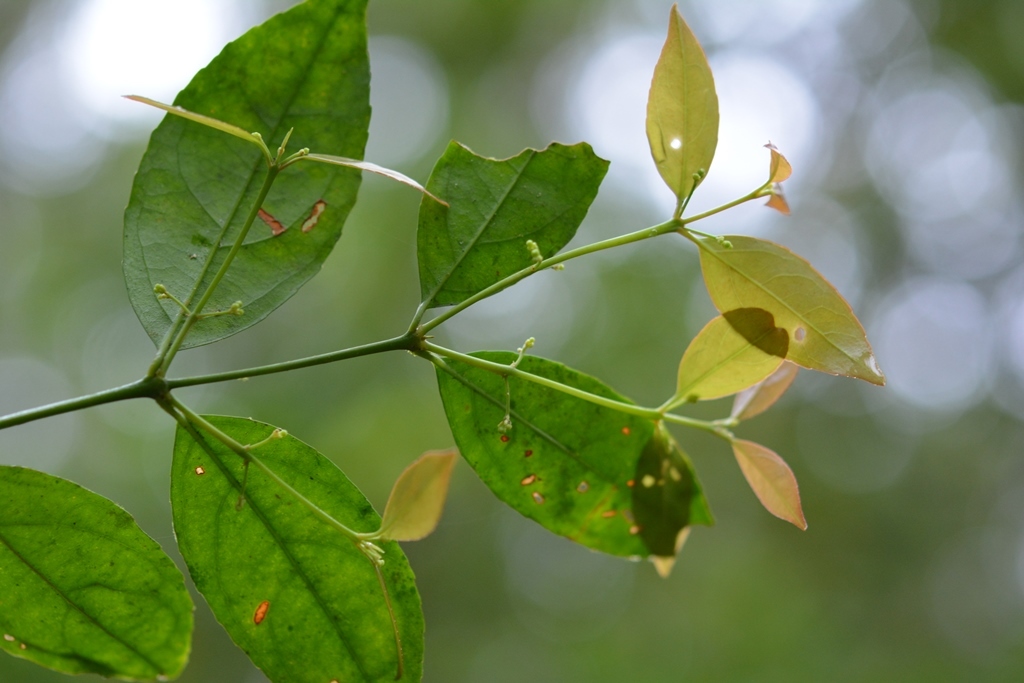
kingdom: Plantae
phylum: Tracheophyta
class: Magnoliopsida
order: Celastrales
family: Celastraceae
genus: Crossopetalum
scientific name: Crossopetalum parviflorum
